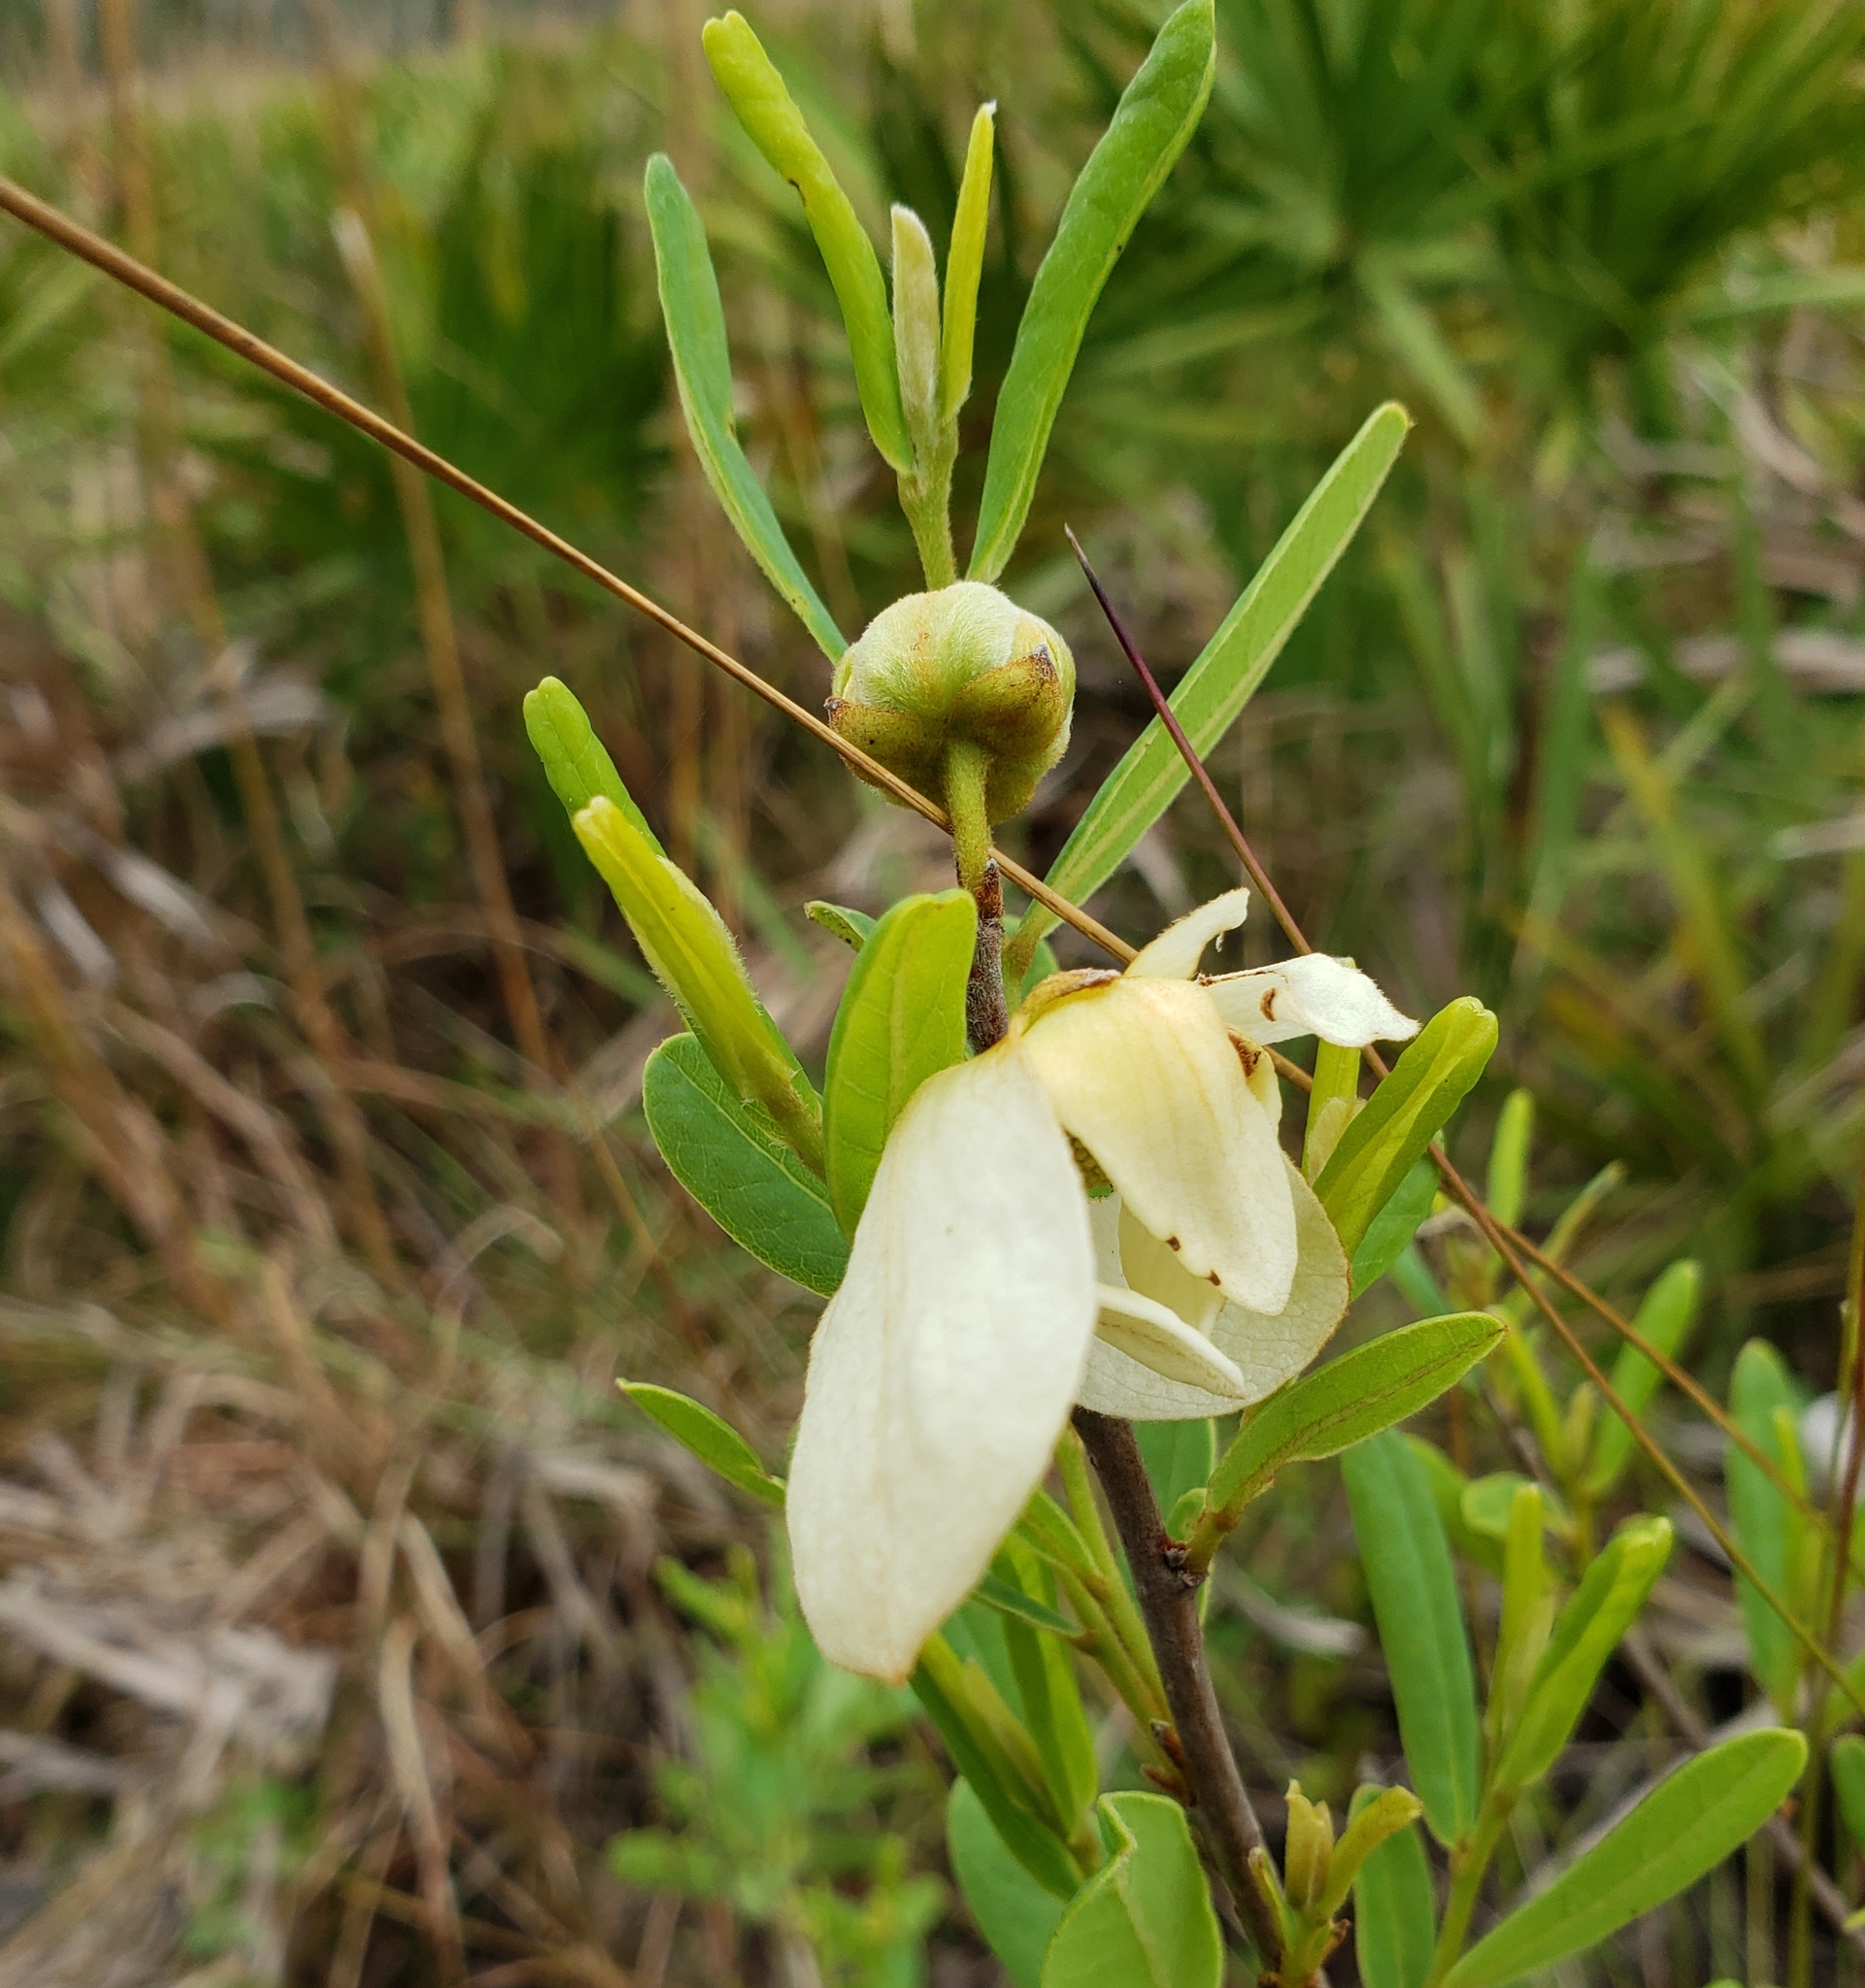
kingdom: Plantae
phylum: Tracheophyta
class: Magnoliopsida
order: Magnoliales
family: Annonaceae
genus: Asimina
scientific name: Asimina reticulata
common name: Flag pawpaw
